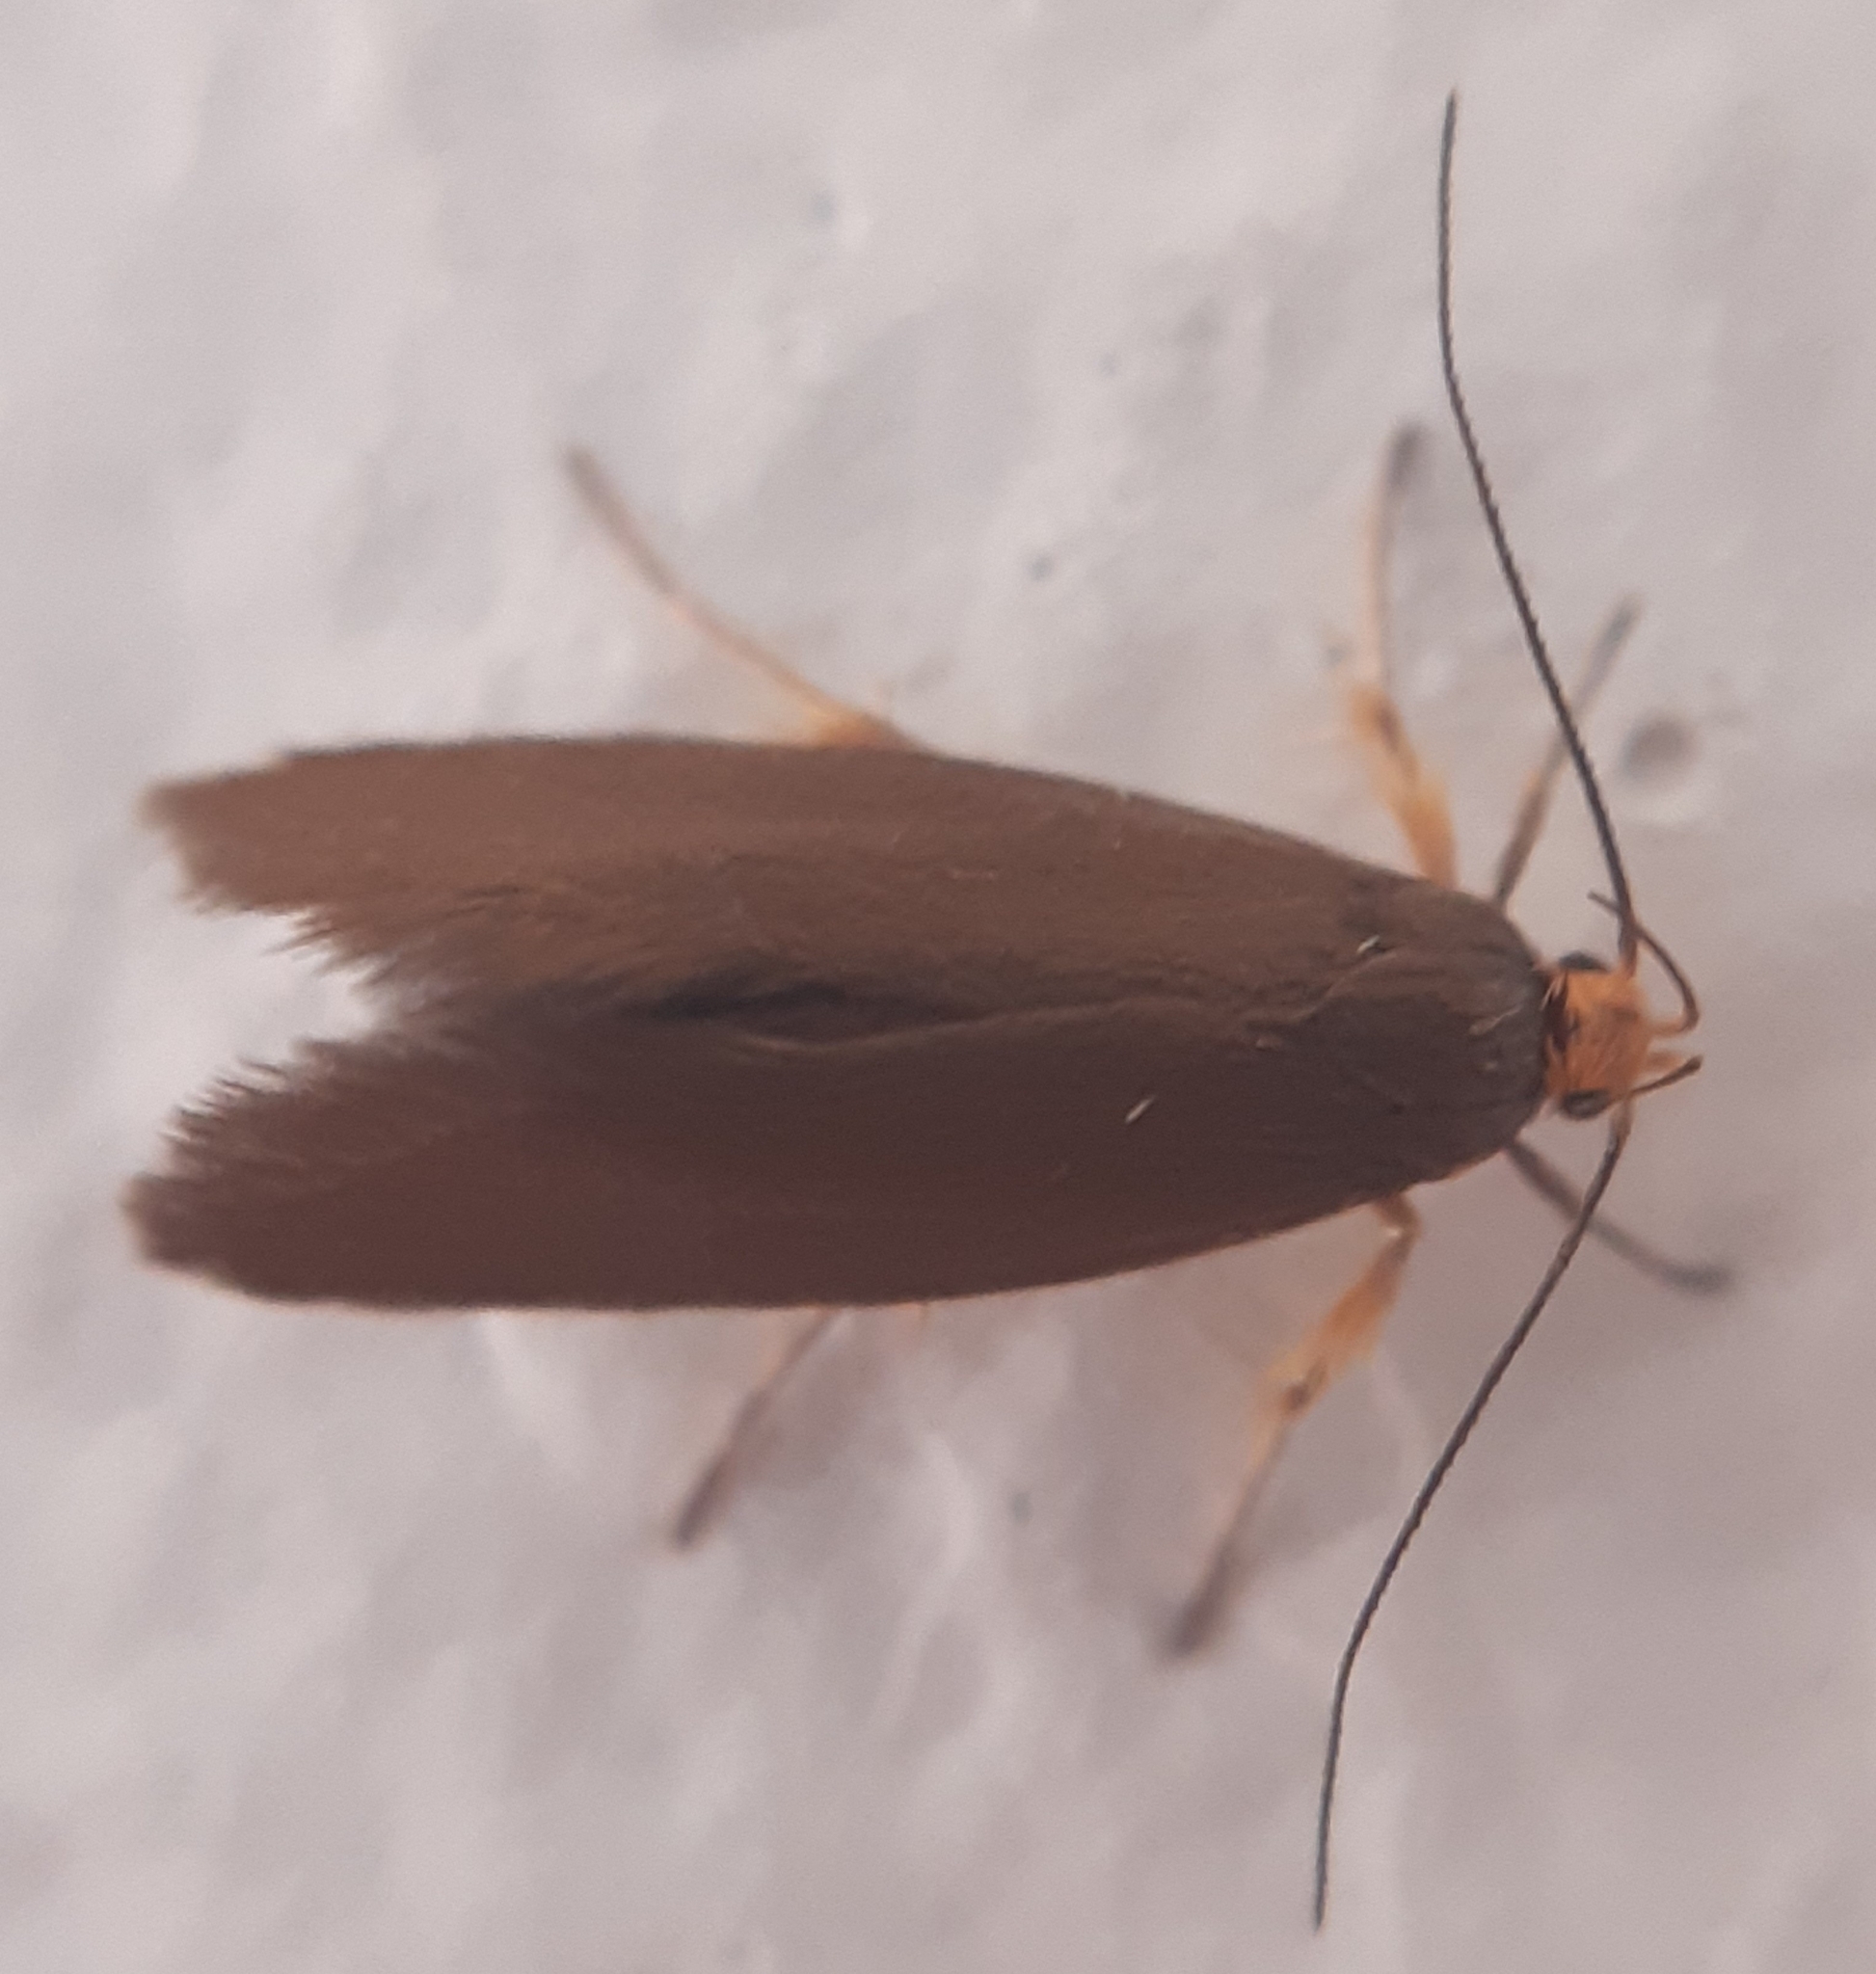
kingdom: Animalia
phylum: Arthropoda
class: Insecta
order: Lepidoptera
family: Oecophoridae
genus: Borkhausenia
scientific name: Borkhausenia Crassa unitella
